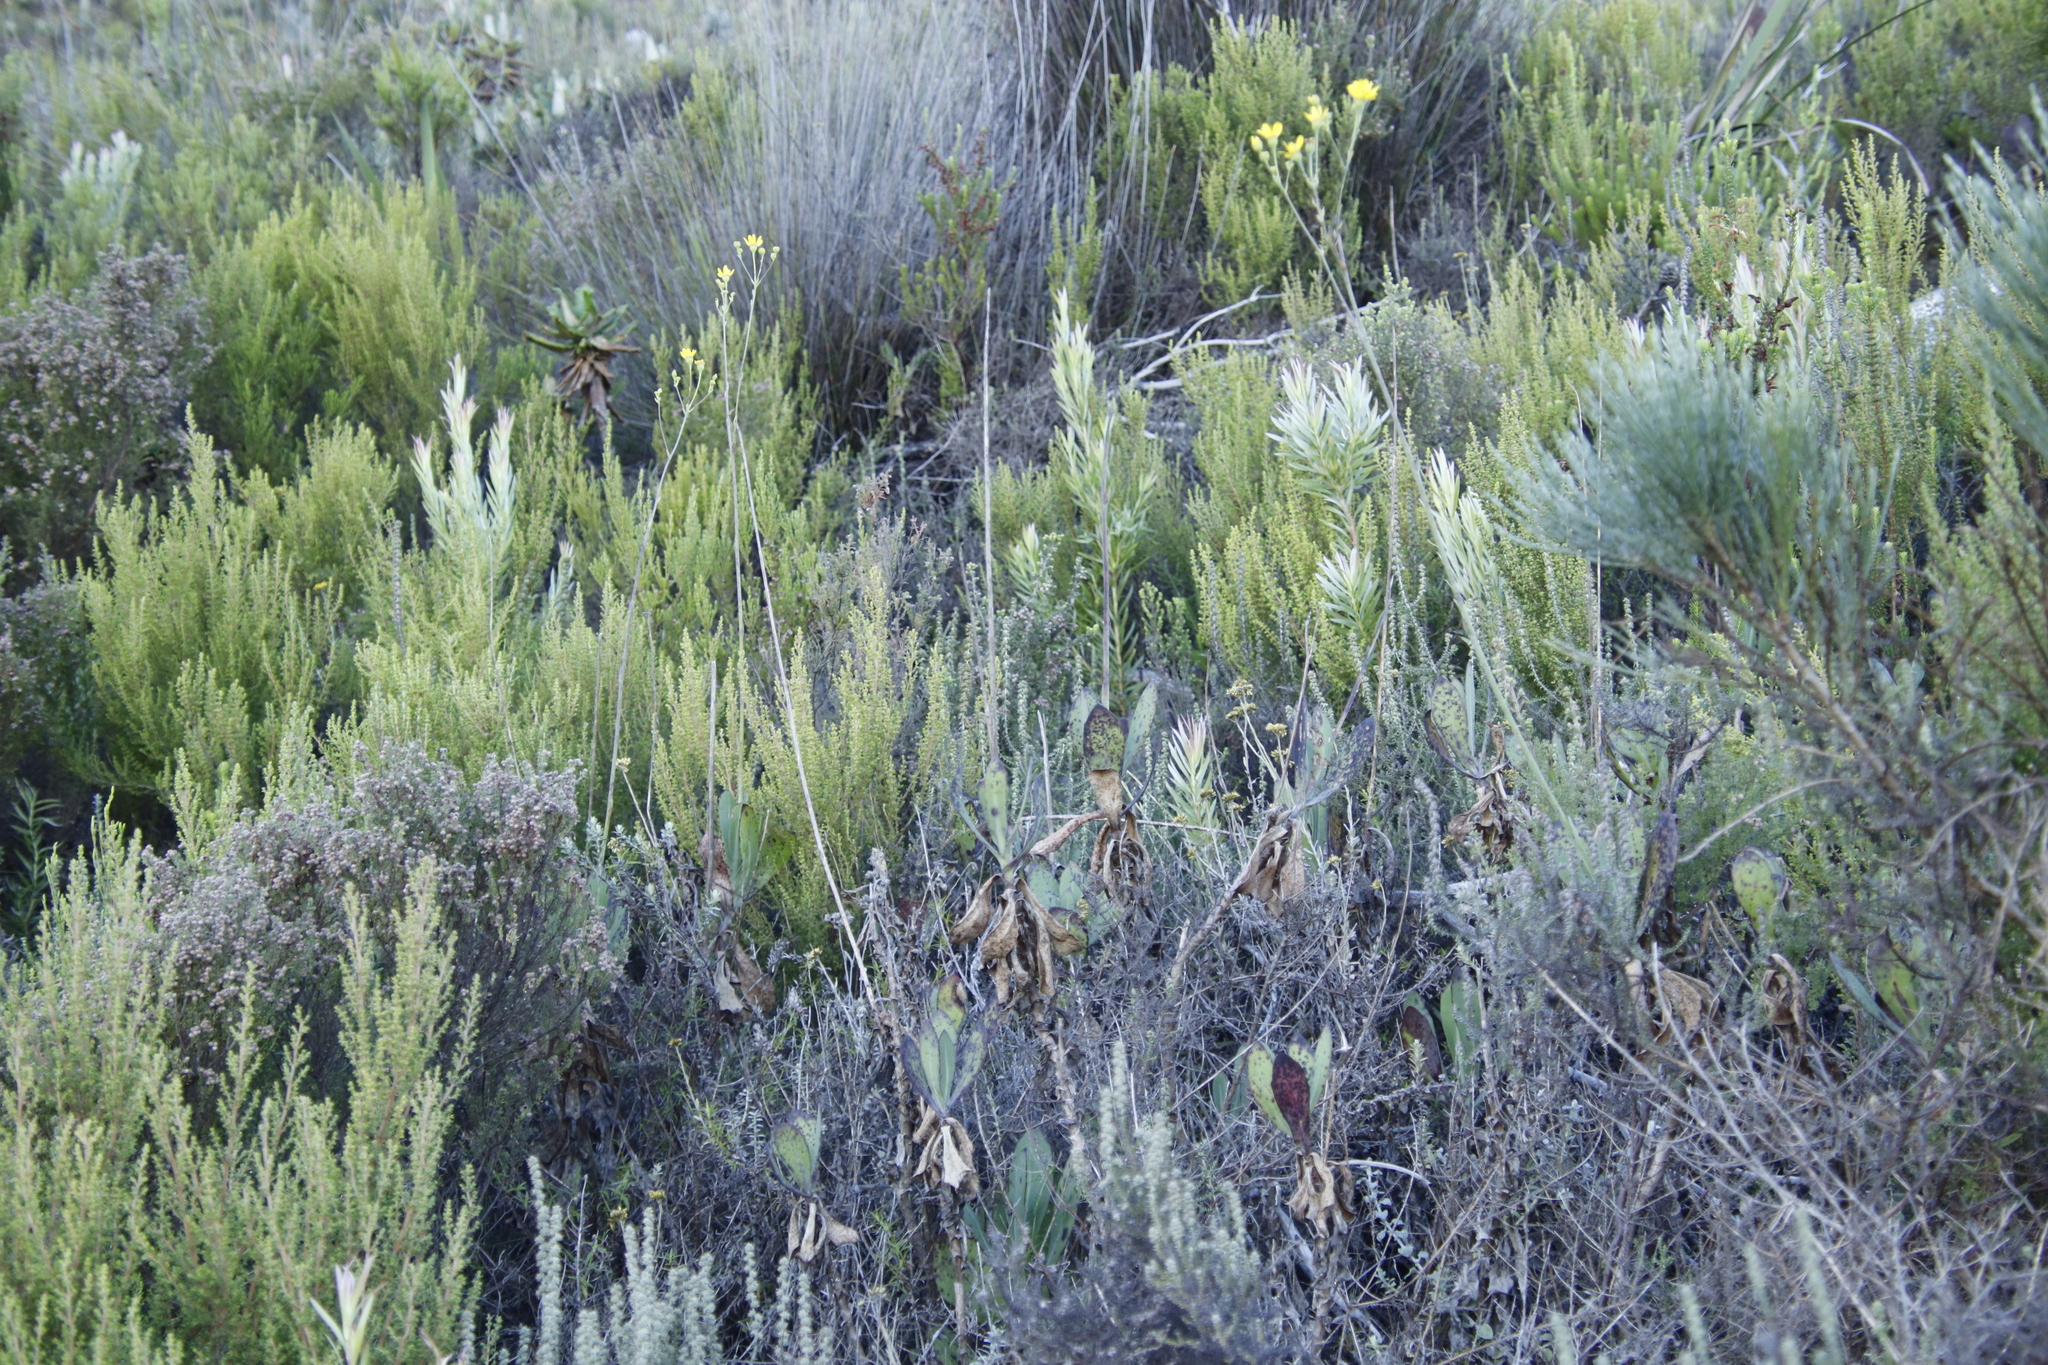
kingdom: Plantae
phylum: Tracheophyta
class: Magnoliopsida
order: Asterales
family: Asteraceae
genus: Othonna
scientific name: Othonna quinquedentata
